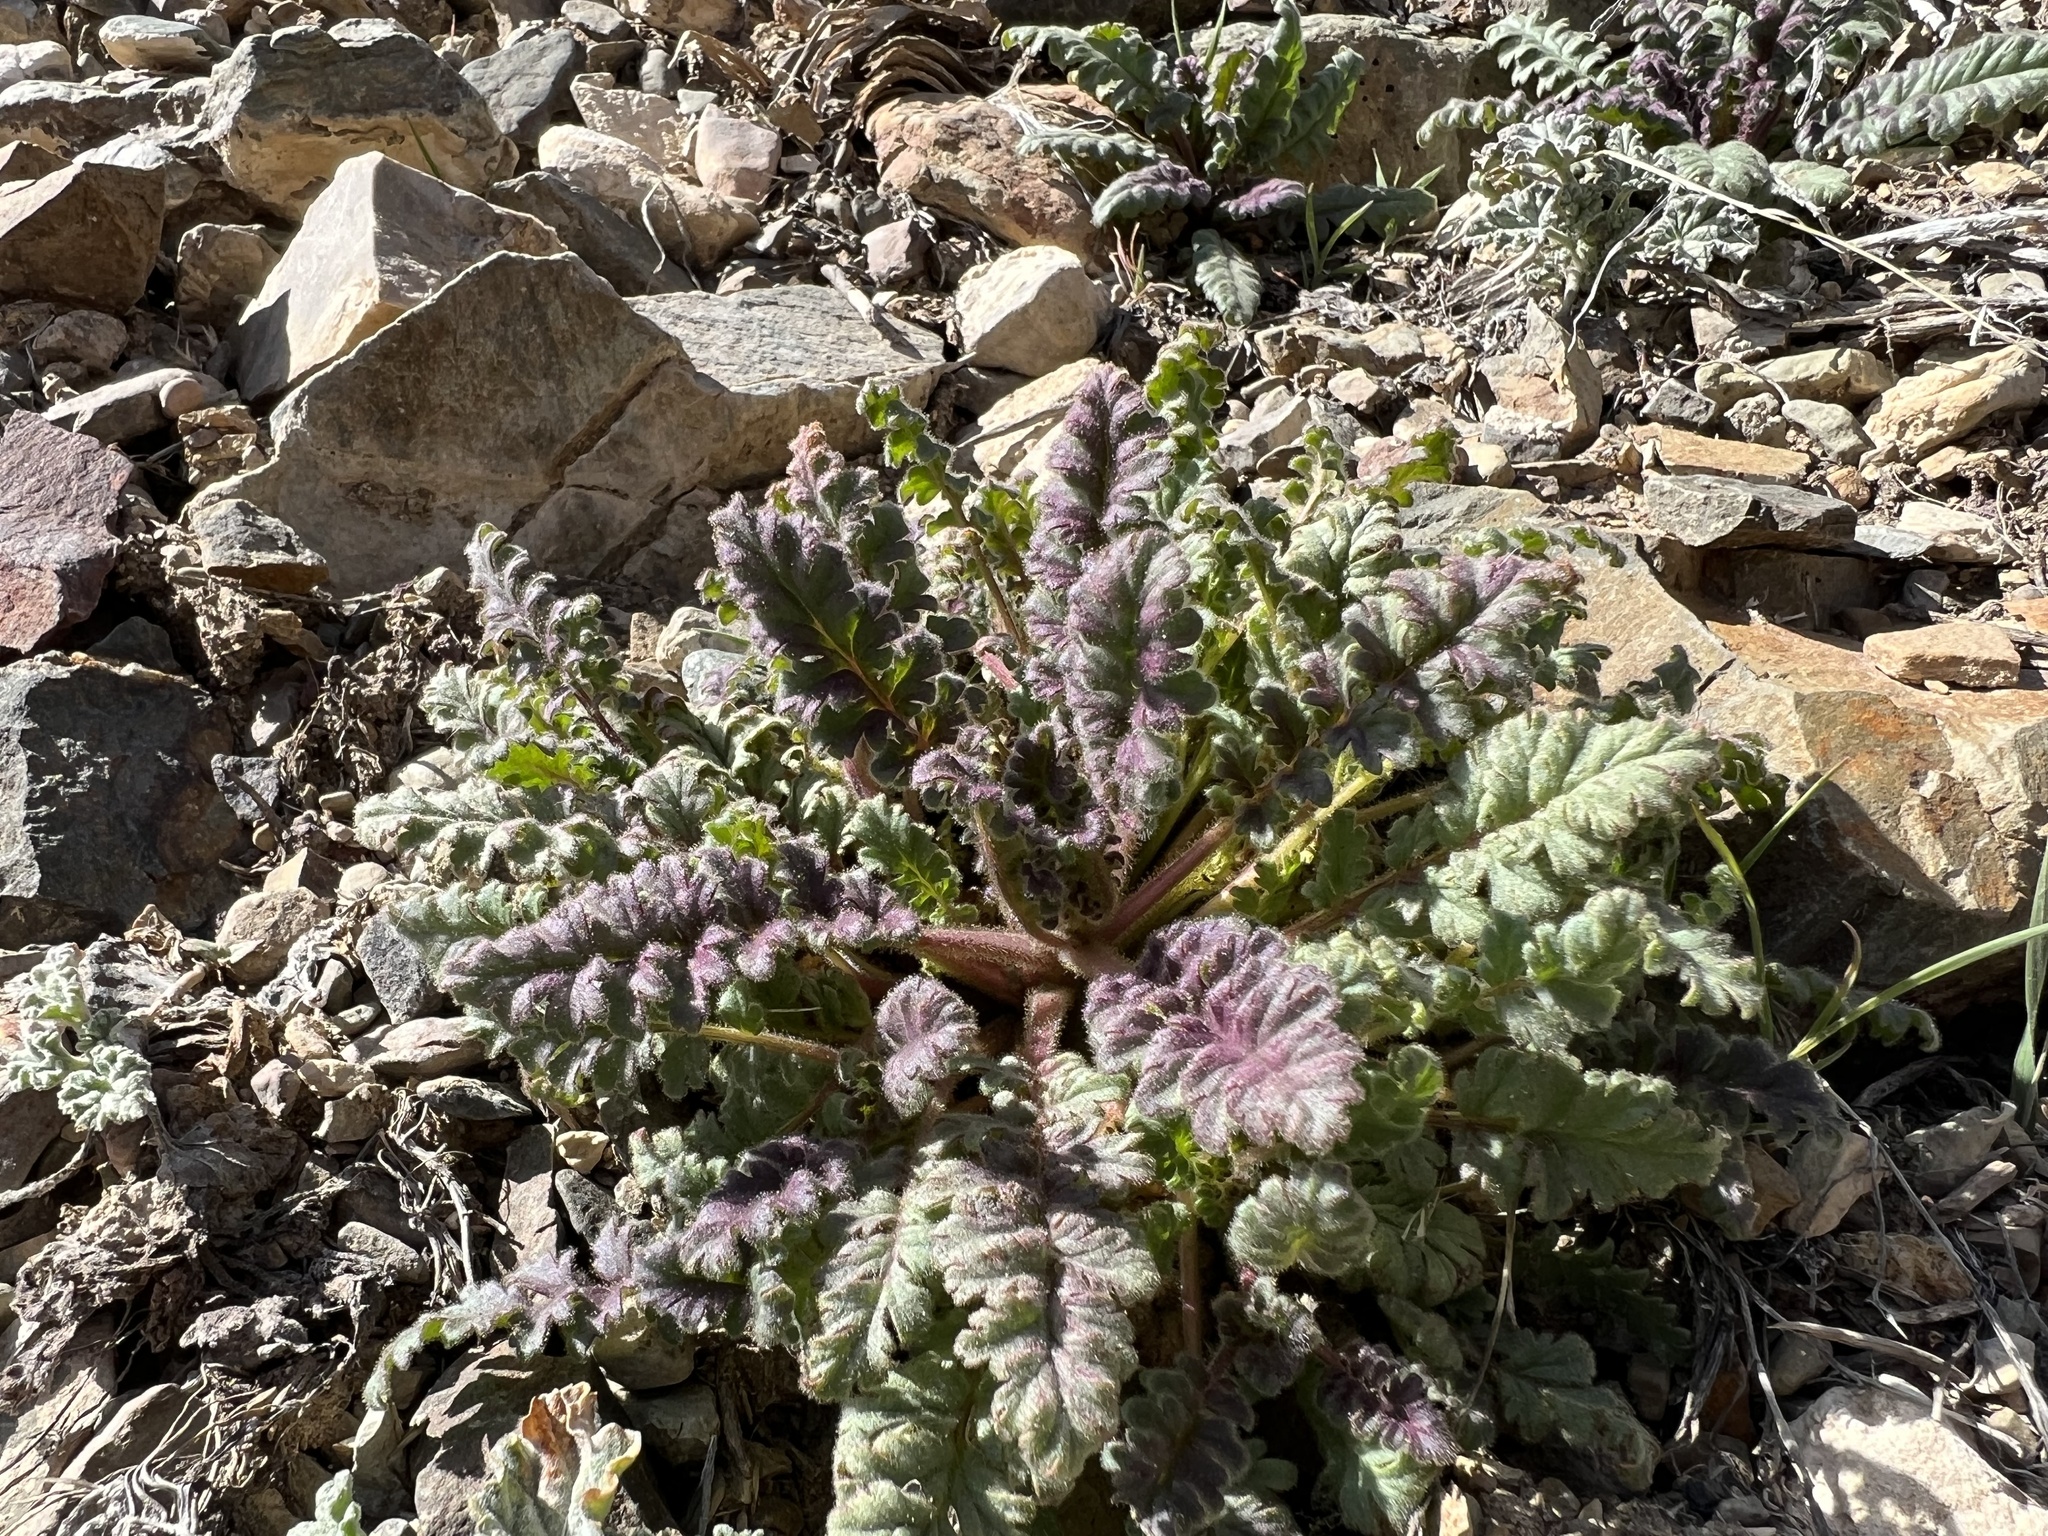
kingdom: Plantae
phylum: Tracheophyta
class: Magnoliopsida
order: Boraginales
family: Hydrophyllaceae
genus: Phacelia
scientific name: Phacelia crenulata
